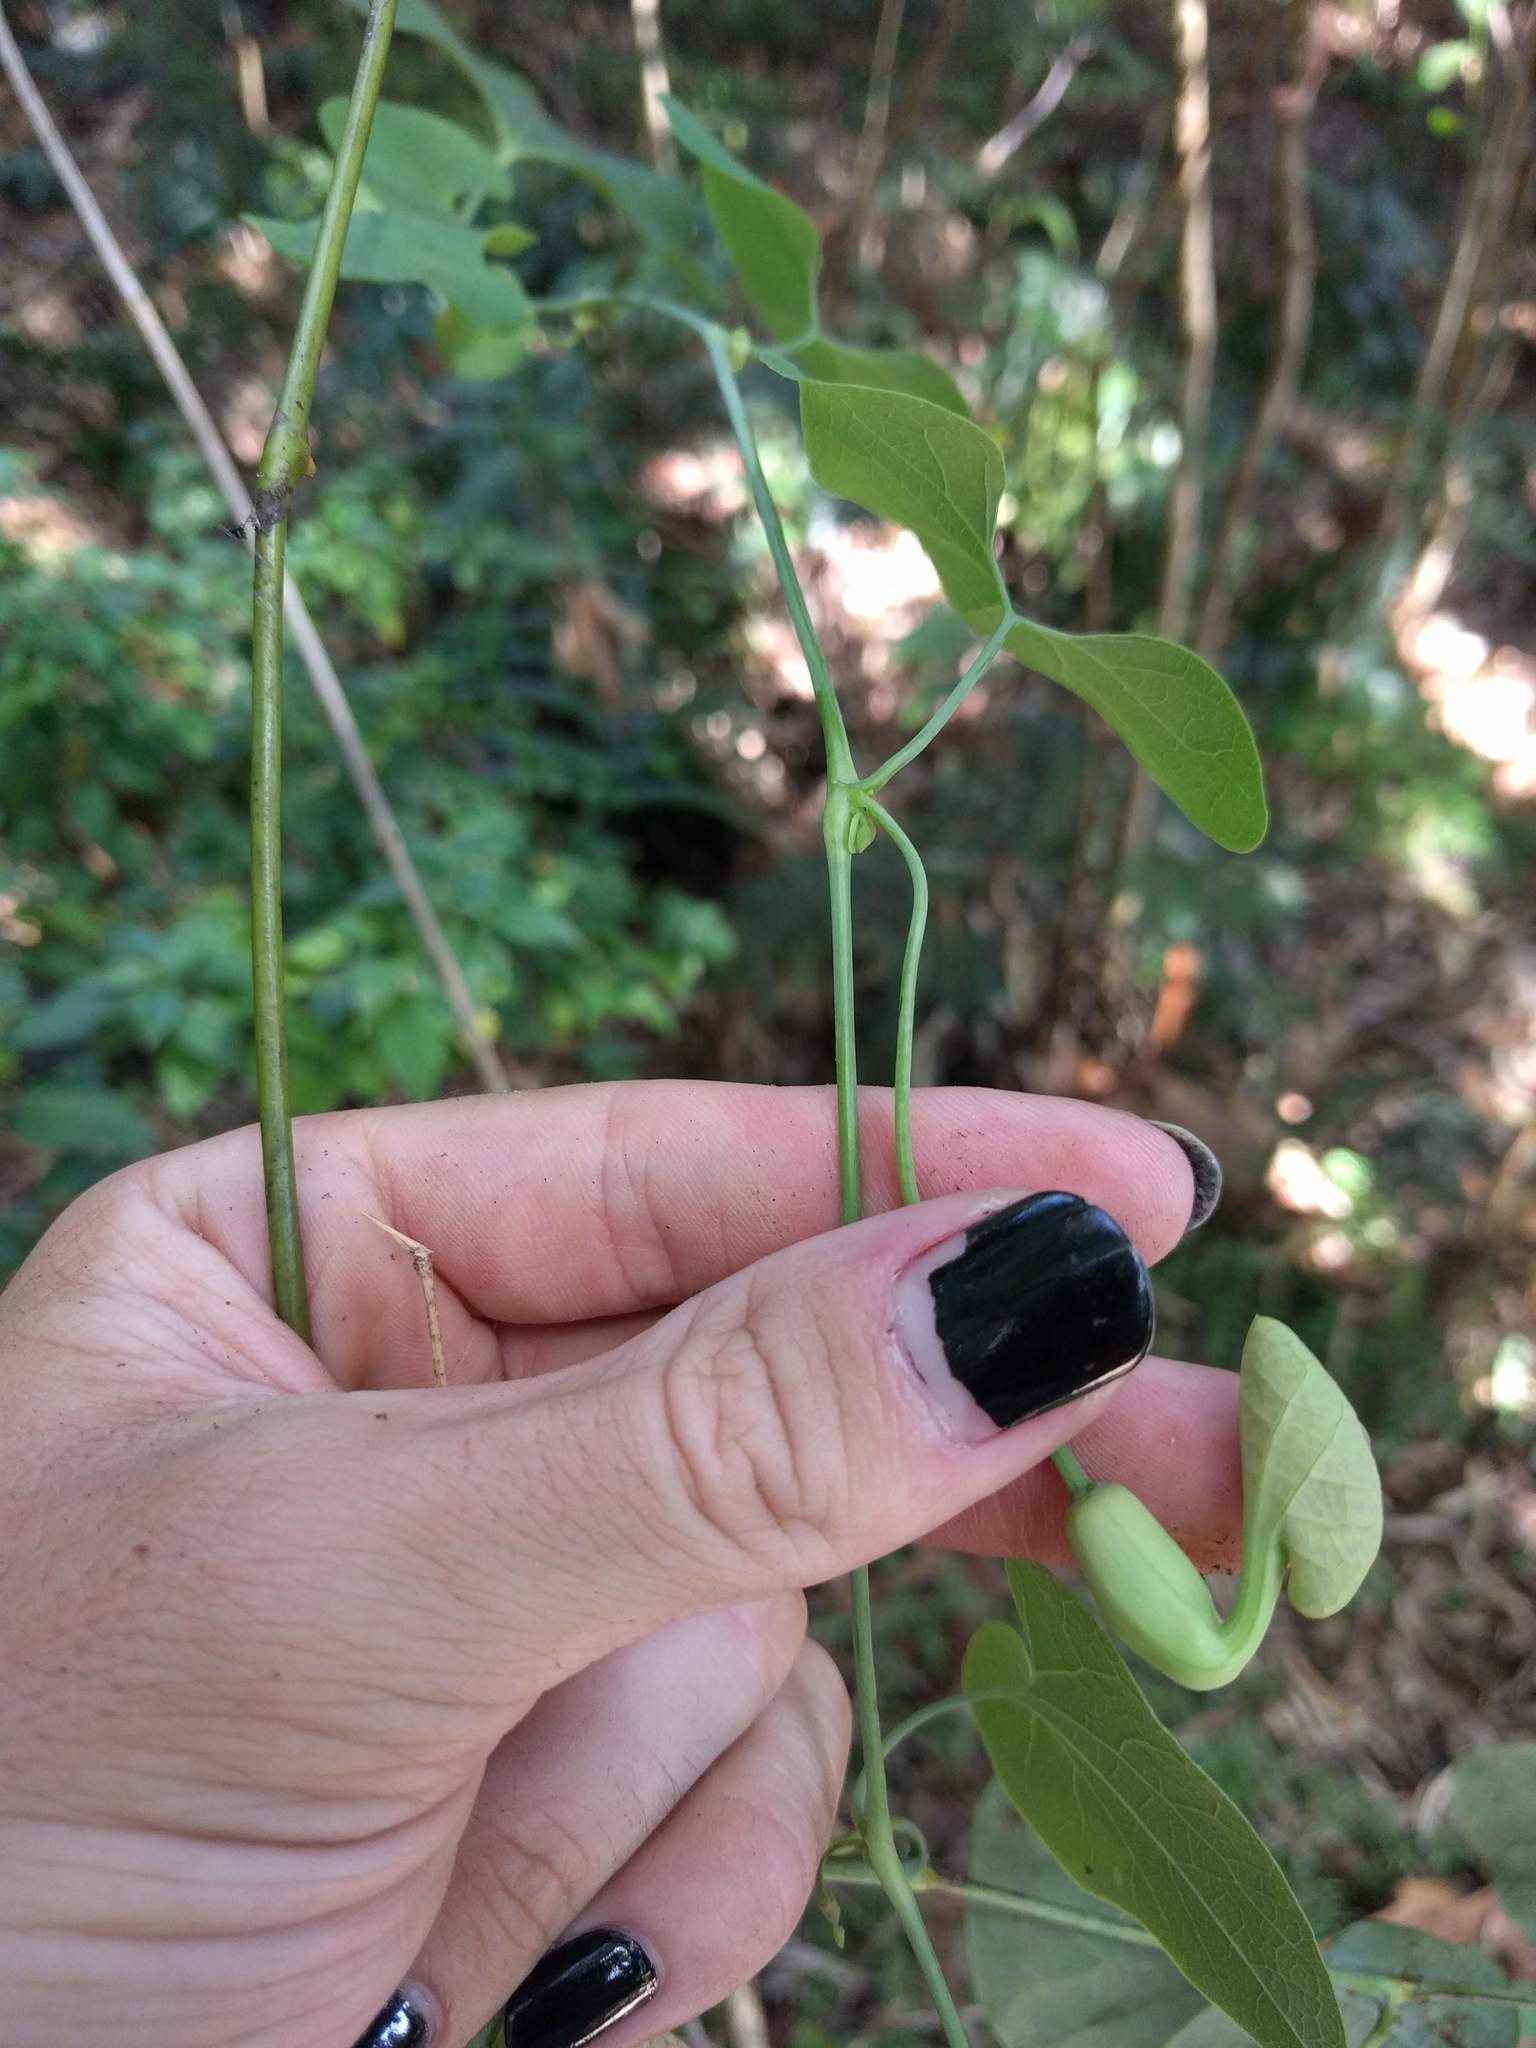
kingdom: Plantae
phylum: Tracheophyta
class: Magnoliopsida
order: Piperales
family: Aristolochiaceae
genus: Aristolochia
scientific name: Aristolochia littoralis
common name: Duck
